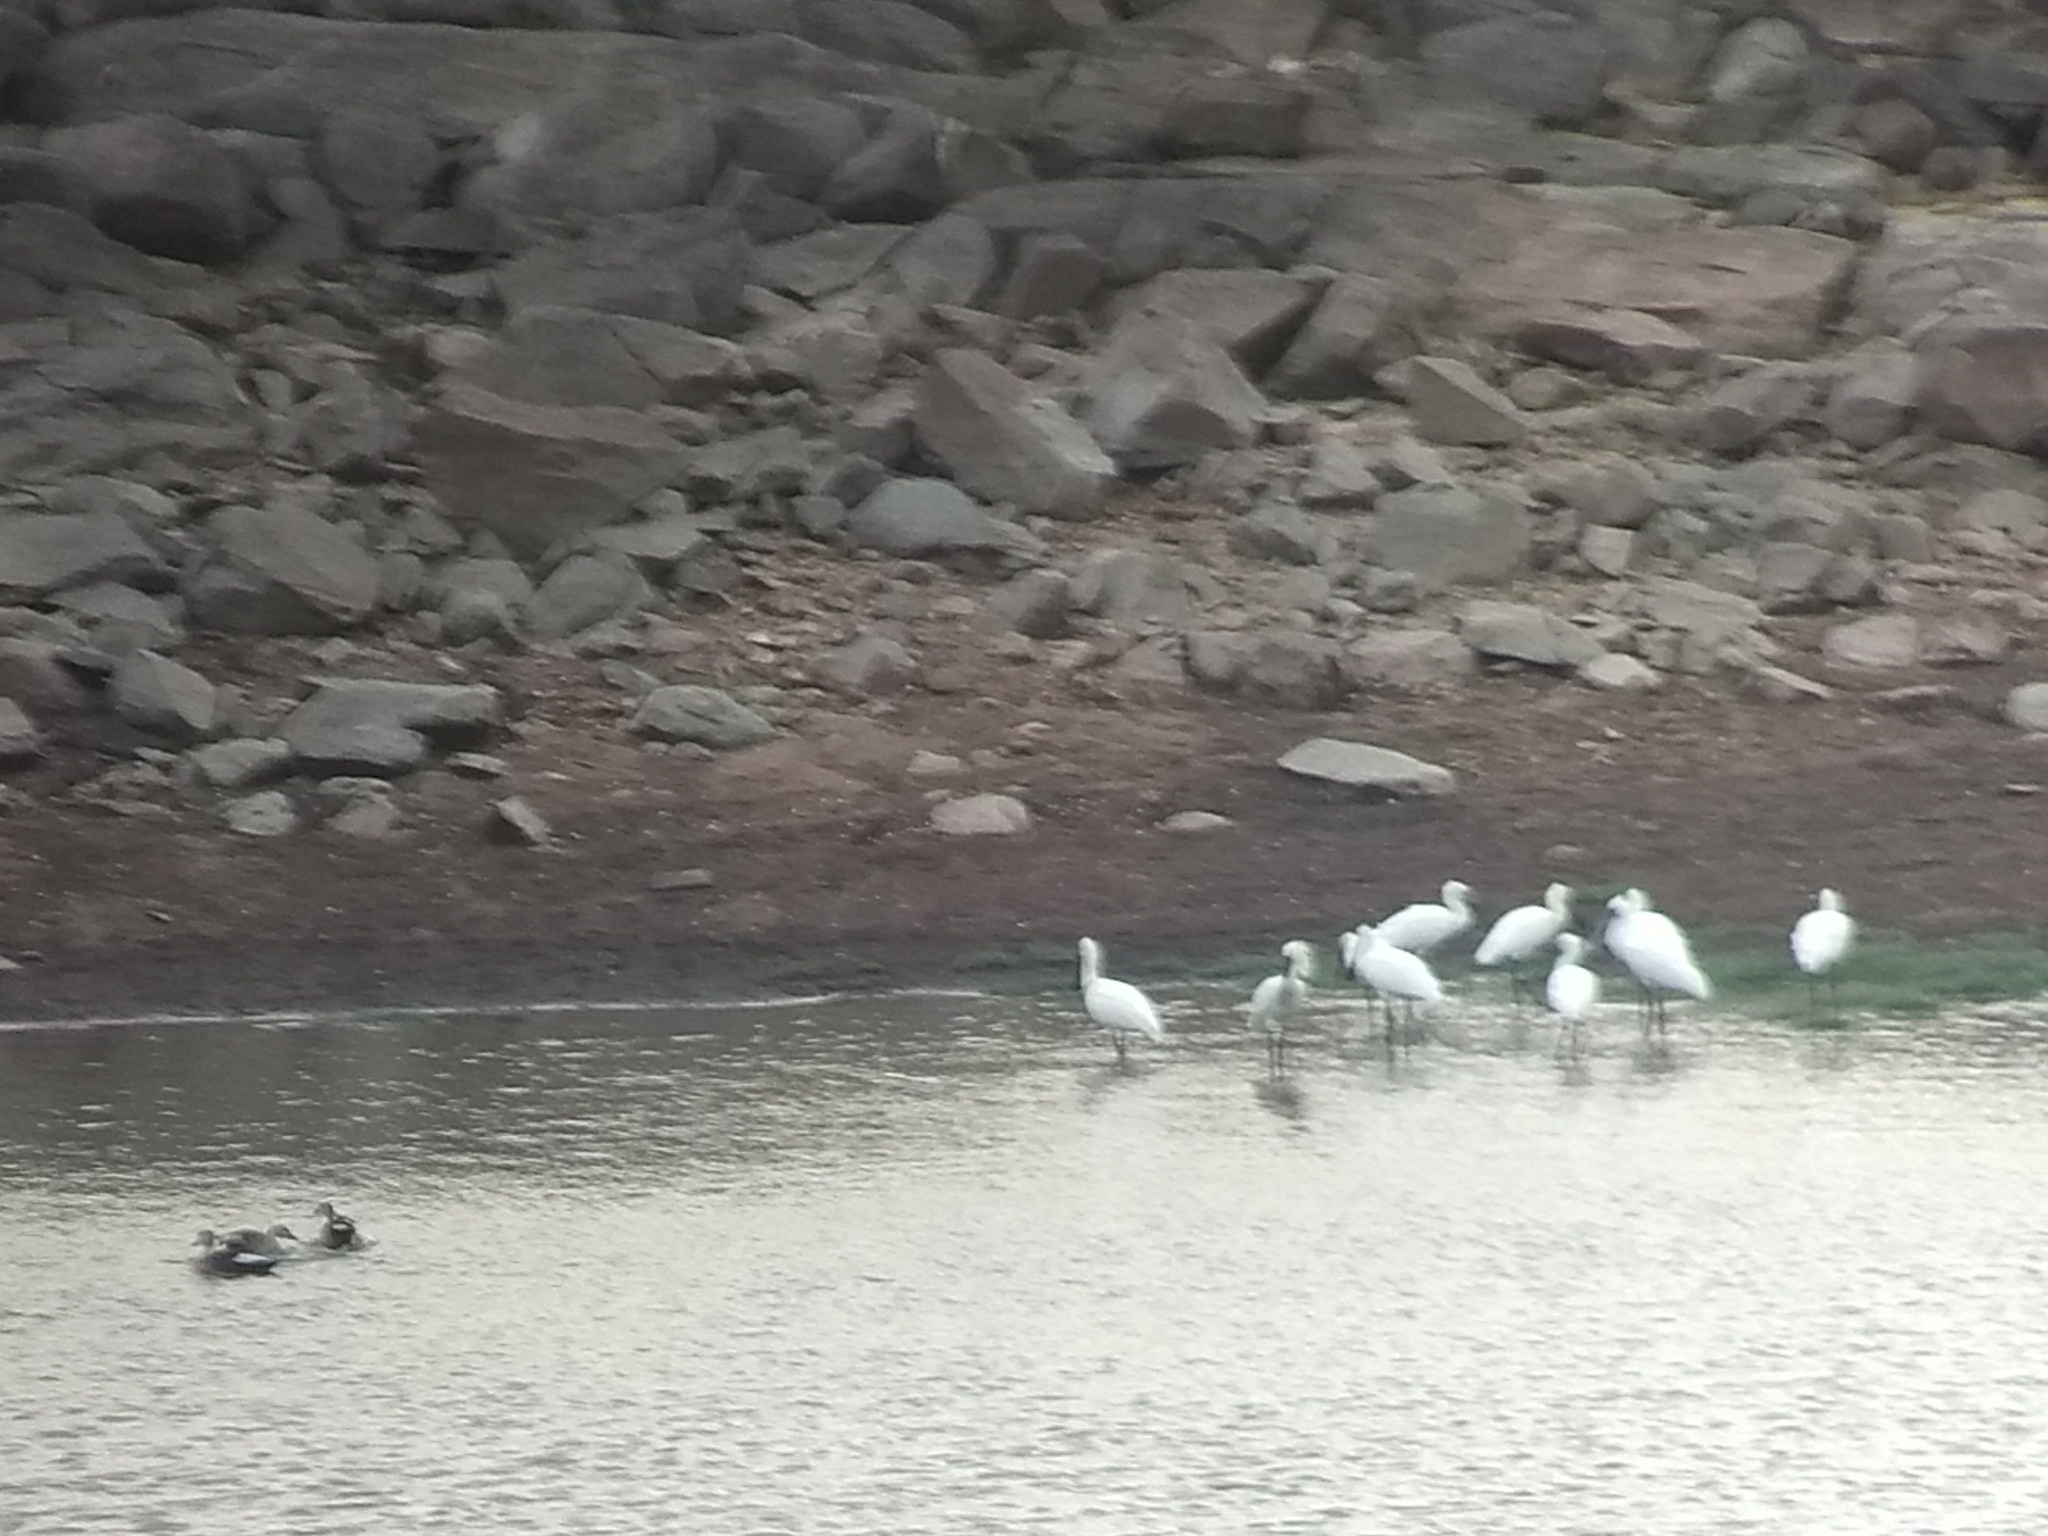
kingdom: Animalia
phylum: Chordata
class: Aves
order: Pelecaniformes
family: Threskiornithidae
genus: Platalea
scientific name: Platalea leucorodia
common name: Eurasian spoonbill
